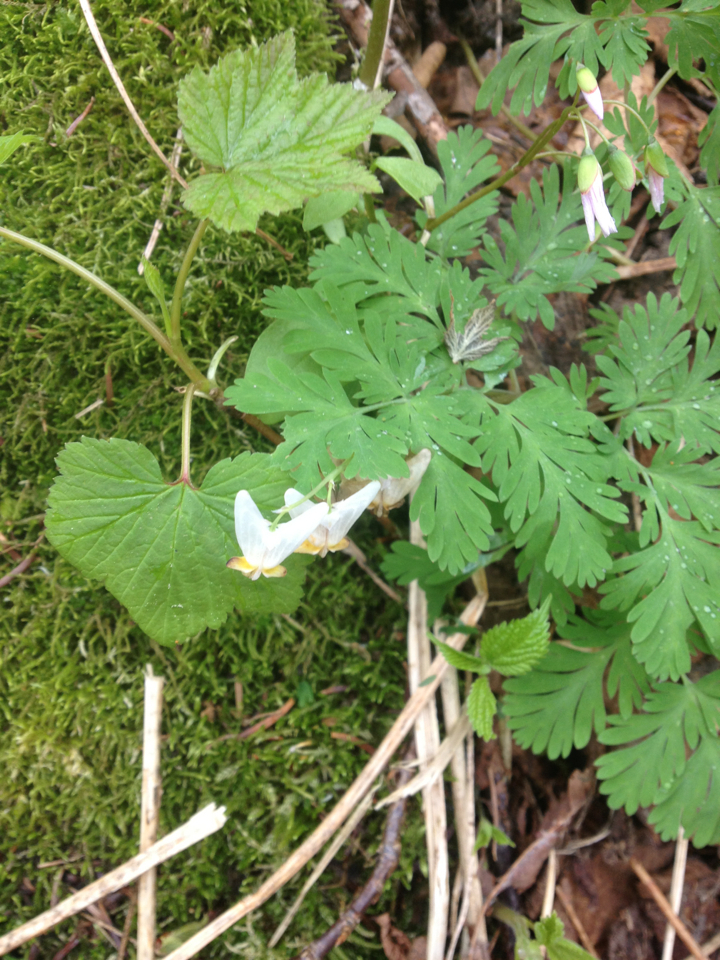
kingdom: Plantae
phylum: Tracheophyta
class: Magnoliopsida
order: Ranunculales
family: Papaveraceae
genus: Dicentra
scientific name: Dicentra cucullaria
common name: Dutchman's breeches
